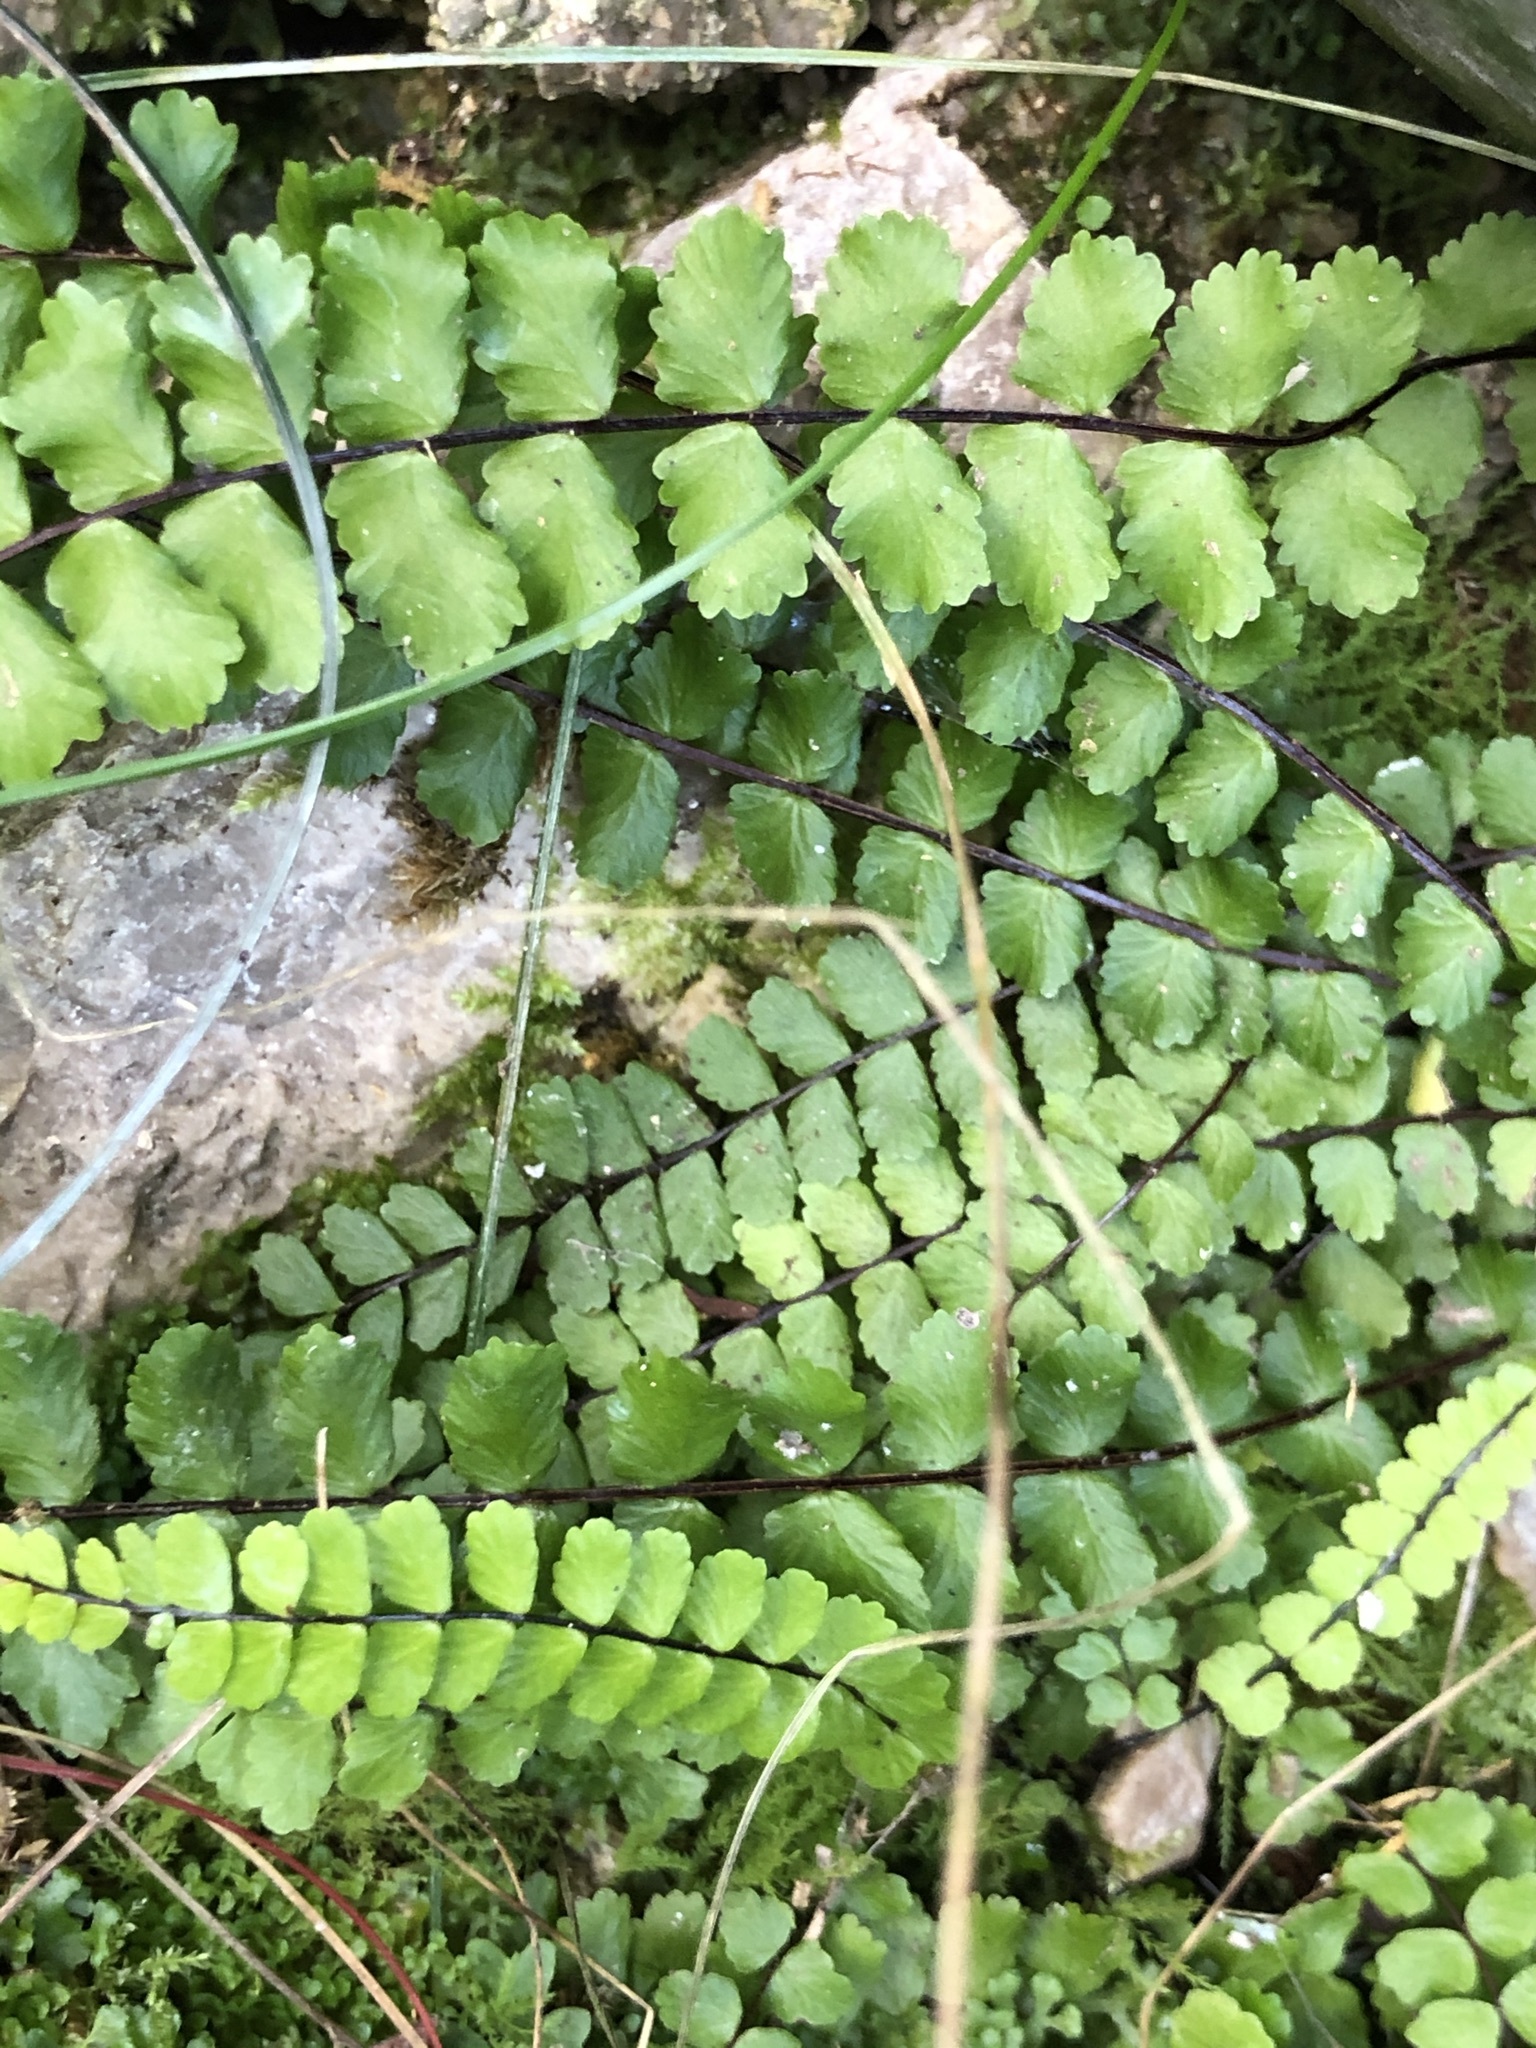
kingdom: Plantae
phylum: Tracheophyta
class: Polypodiopsida
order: Polypodiales
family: Aspleniaceae
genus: Asplenium
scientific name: Asplenium trichomanes
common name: Maidenhair spleenwort
